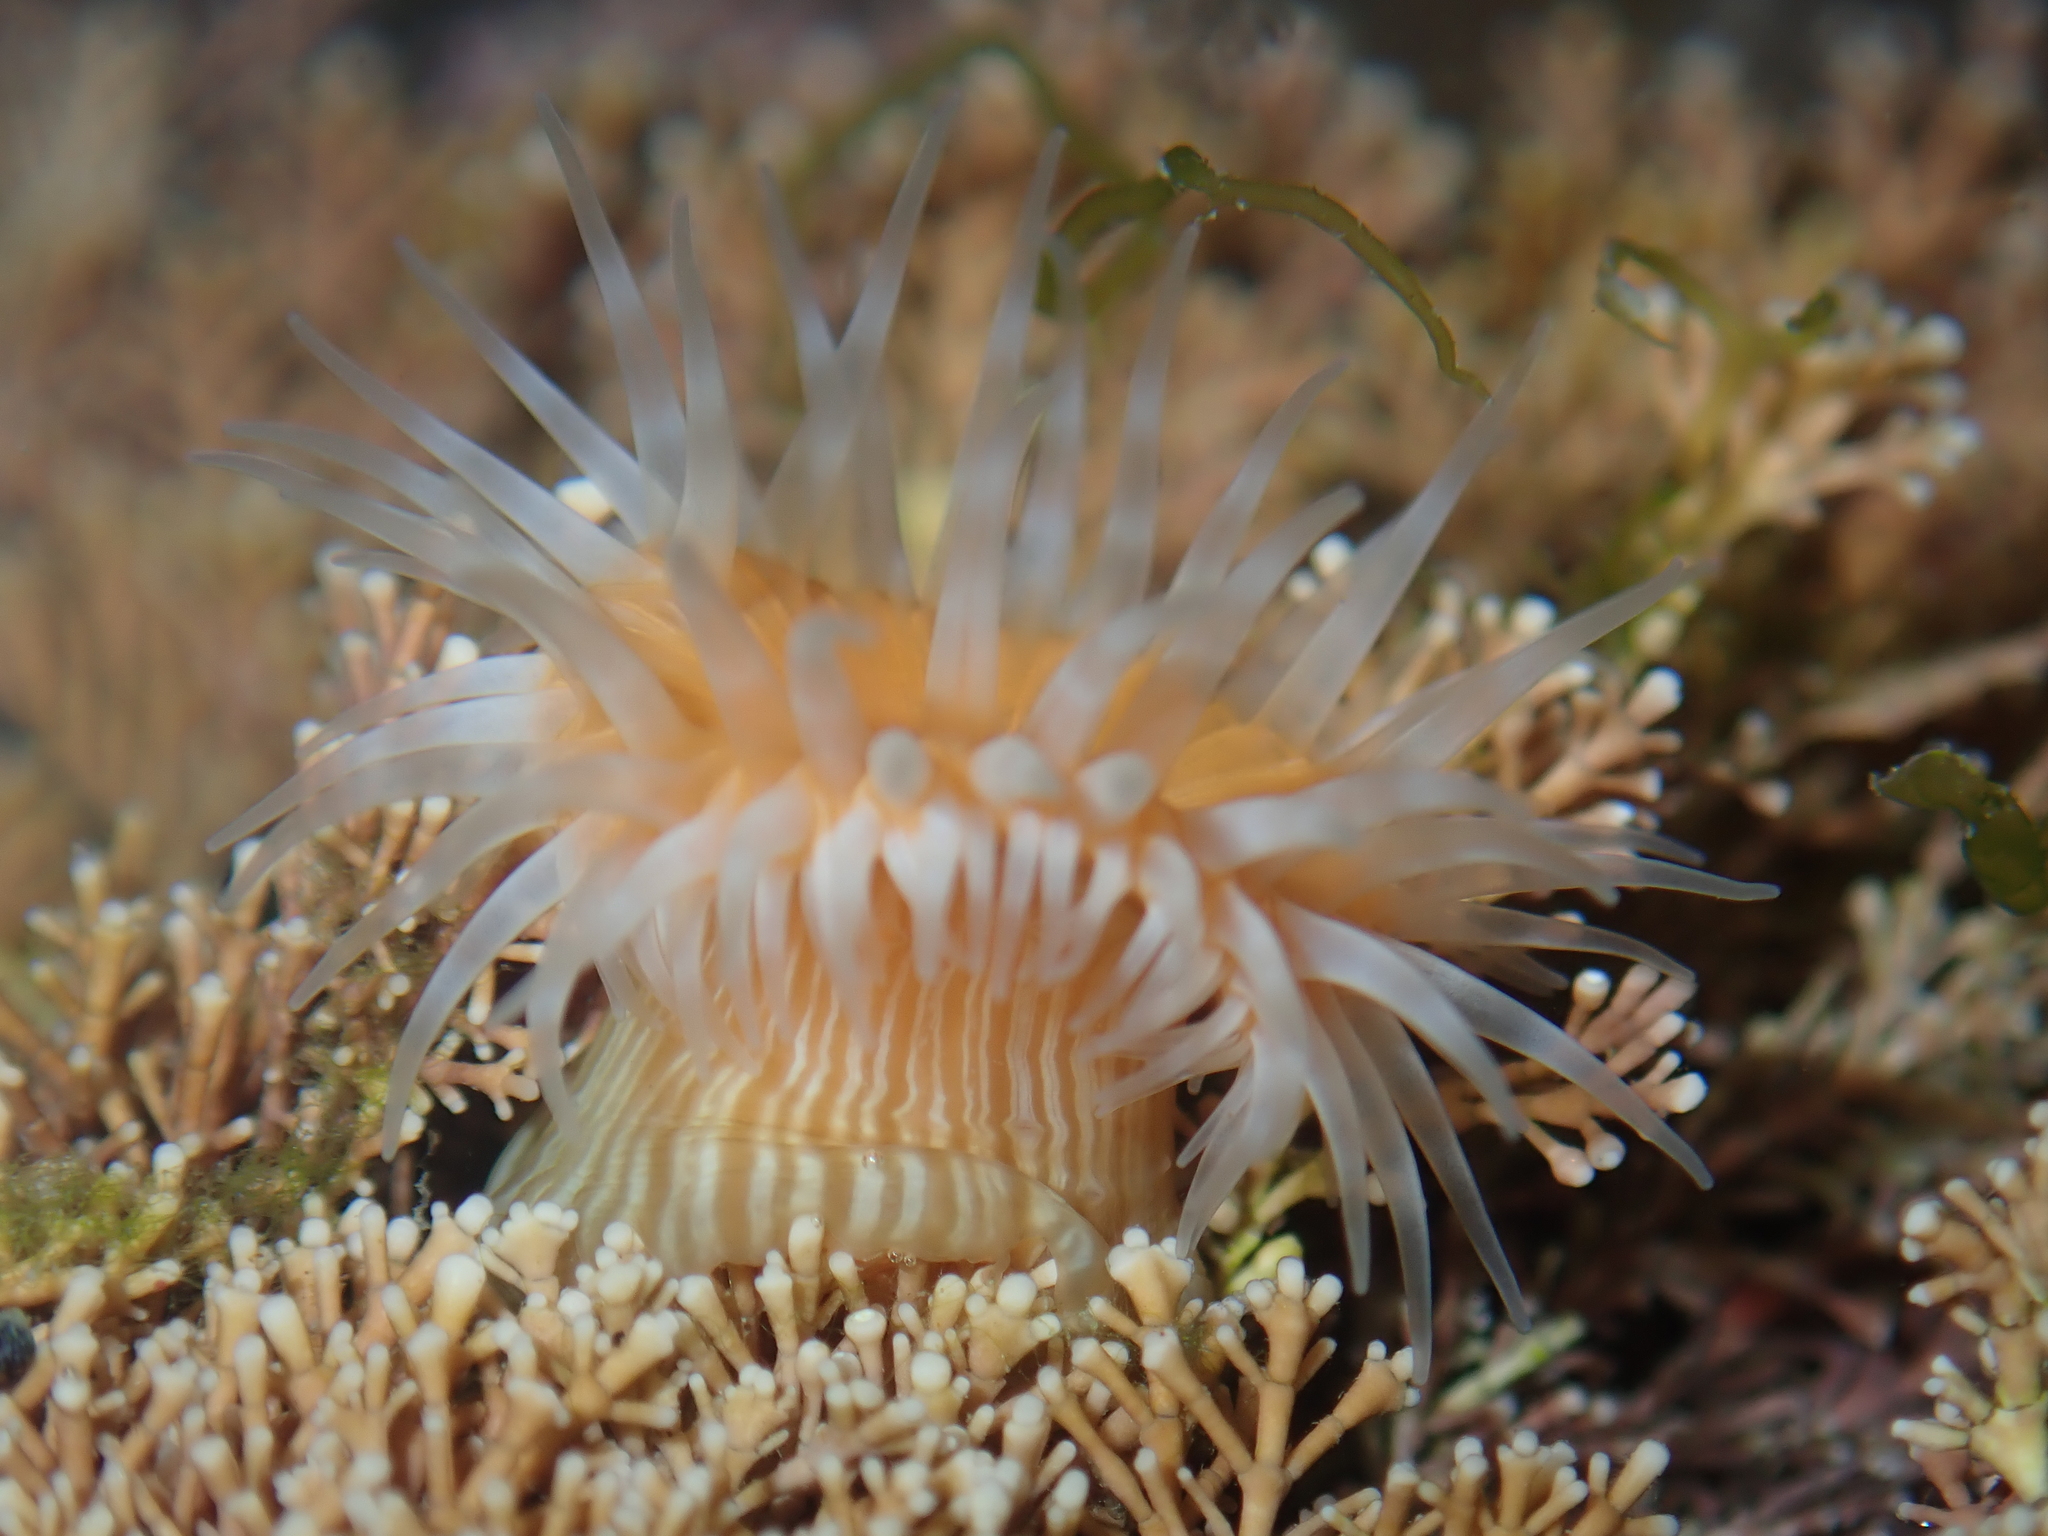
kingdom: Animalia
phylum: Cnidaria
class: Anthozoa
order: Actiniaria
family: Sagartiidae
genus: Anthothoe
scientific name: Anthothoe albocincta
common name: Orange striped anemone
